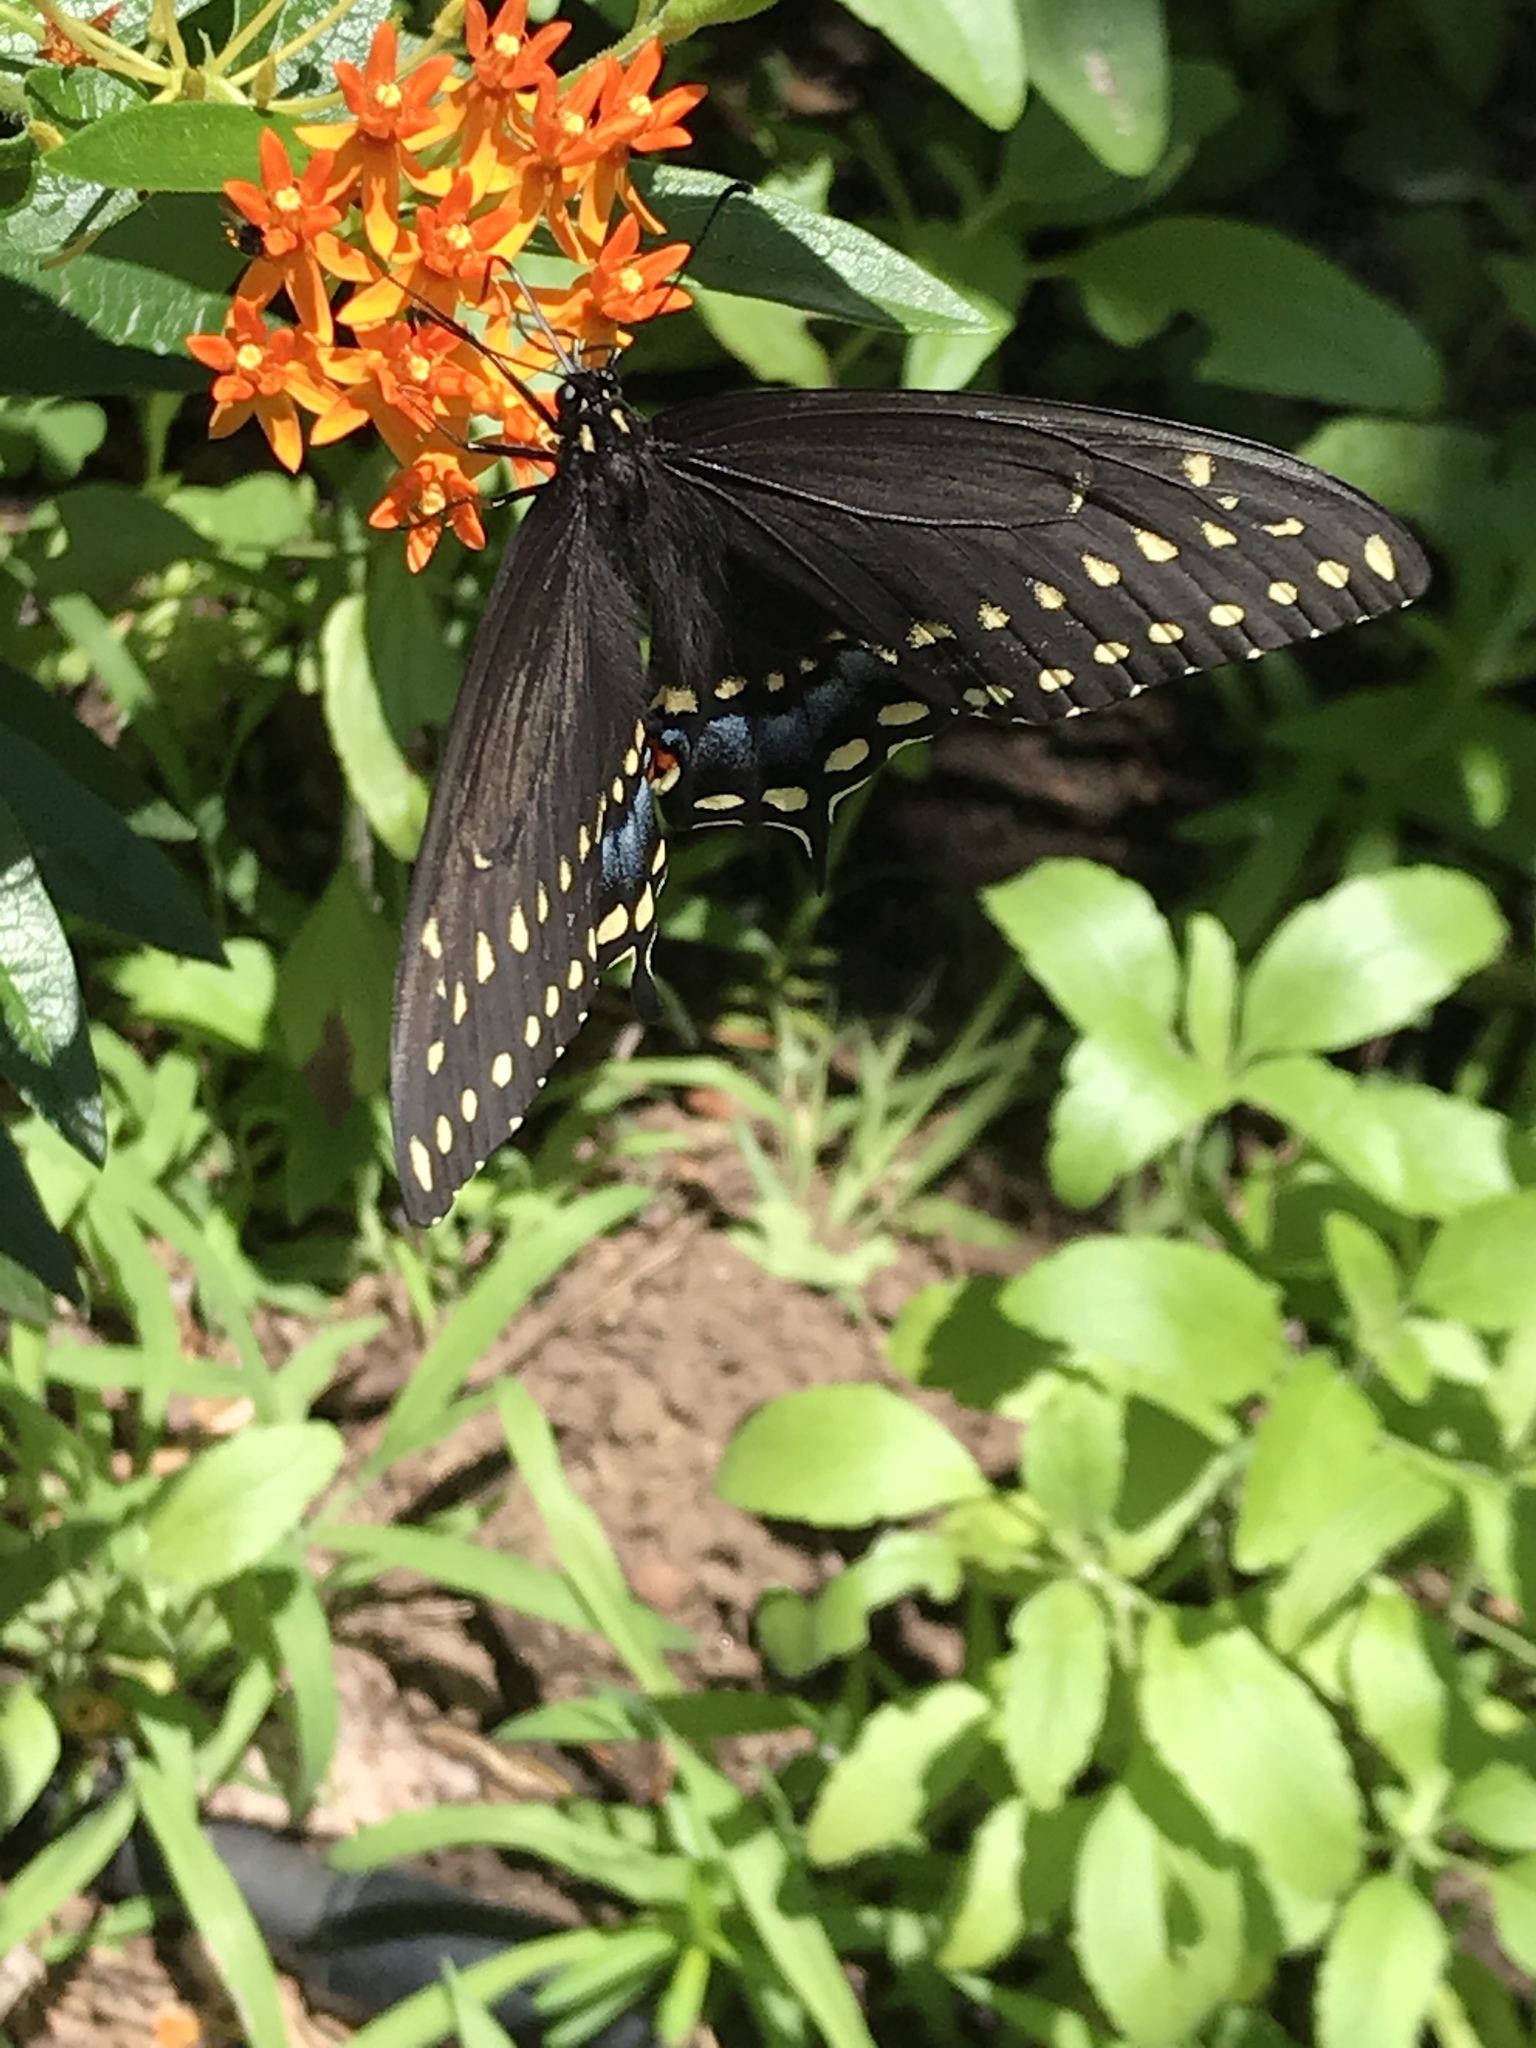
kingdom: Animalia
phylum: Arthropoda
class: Insecta
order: Lepidoptera
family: Papilionidae
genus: Papilio
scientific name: Papilio polyxenes
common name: Black swallowtail
